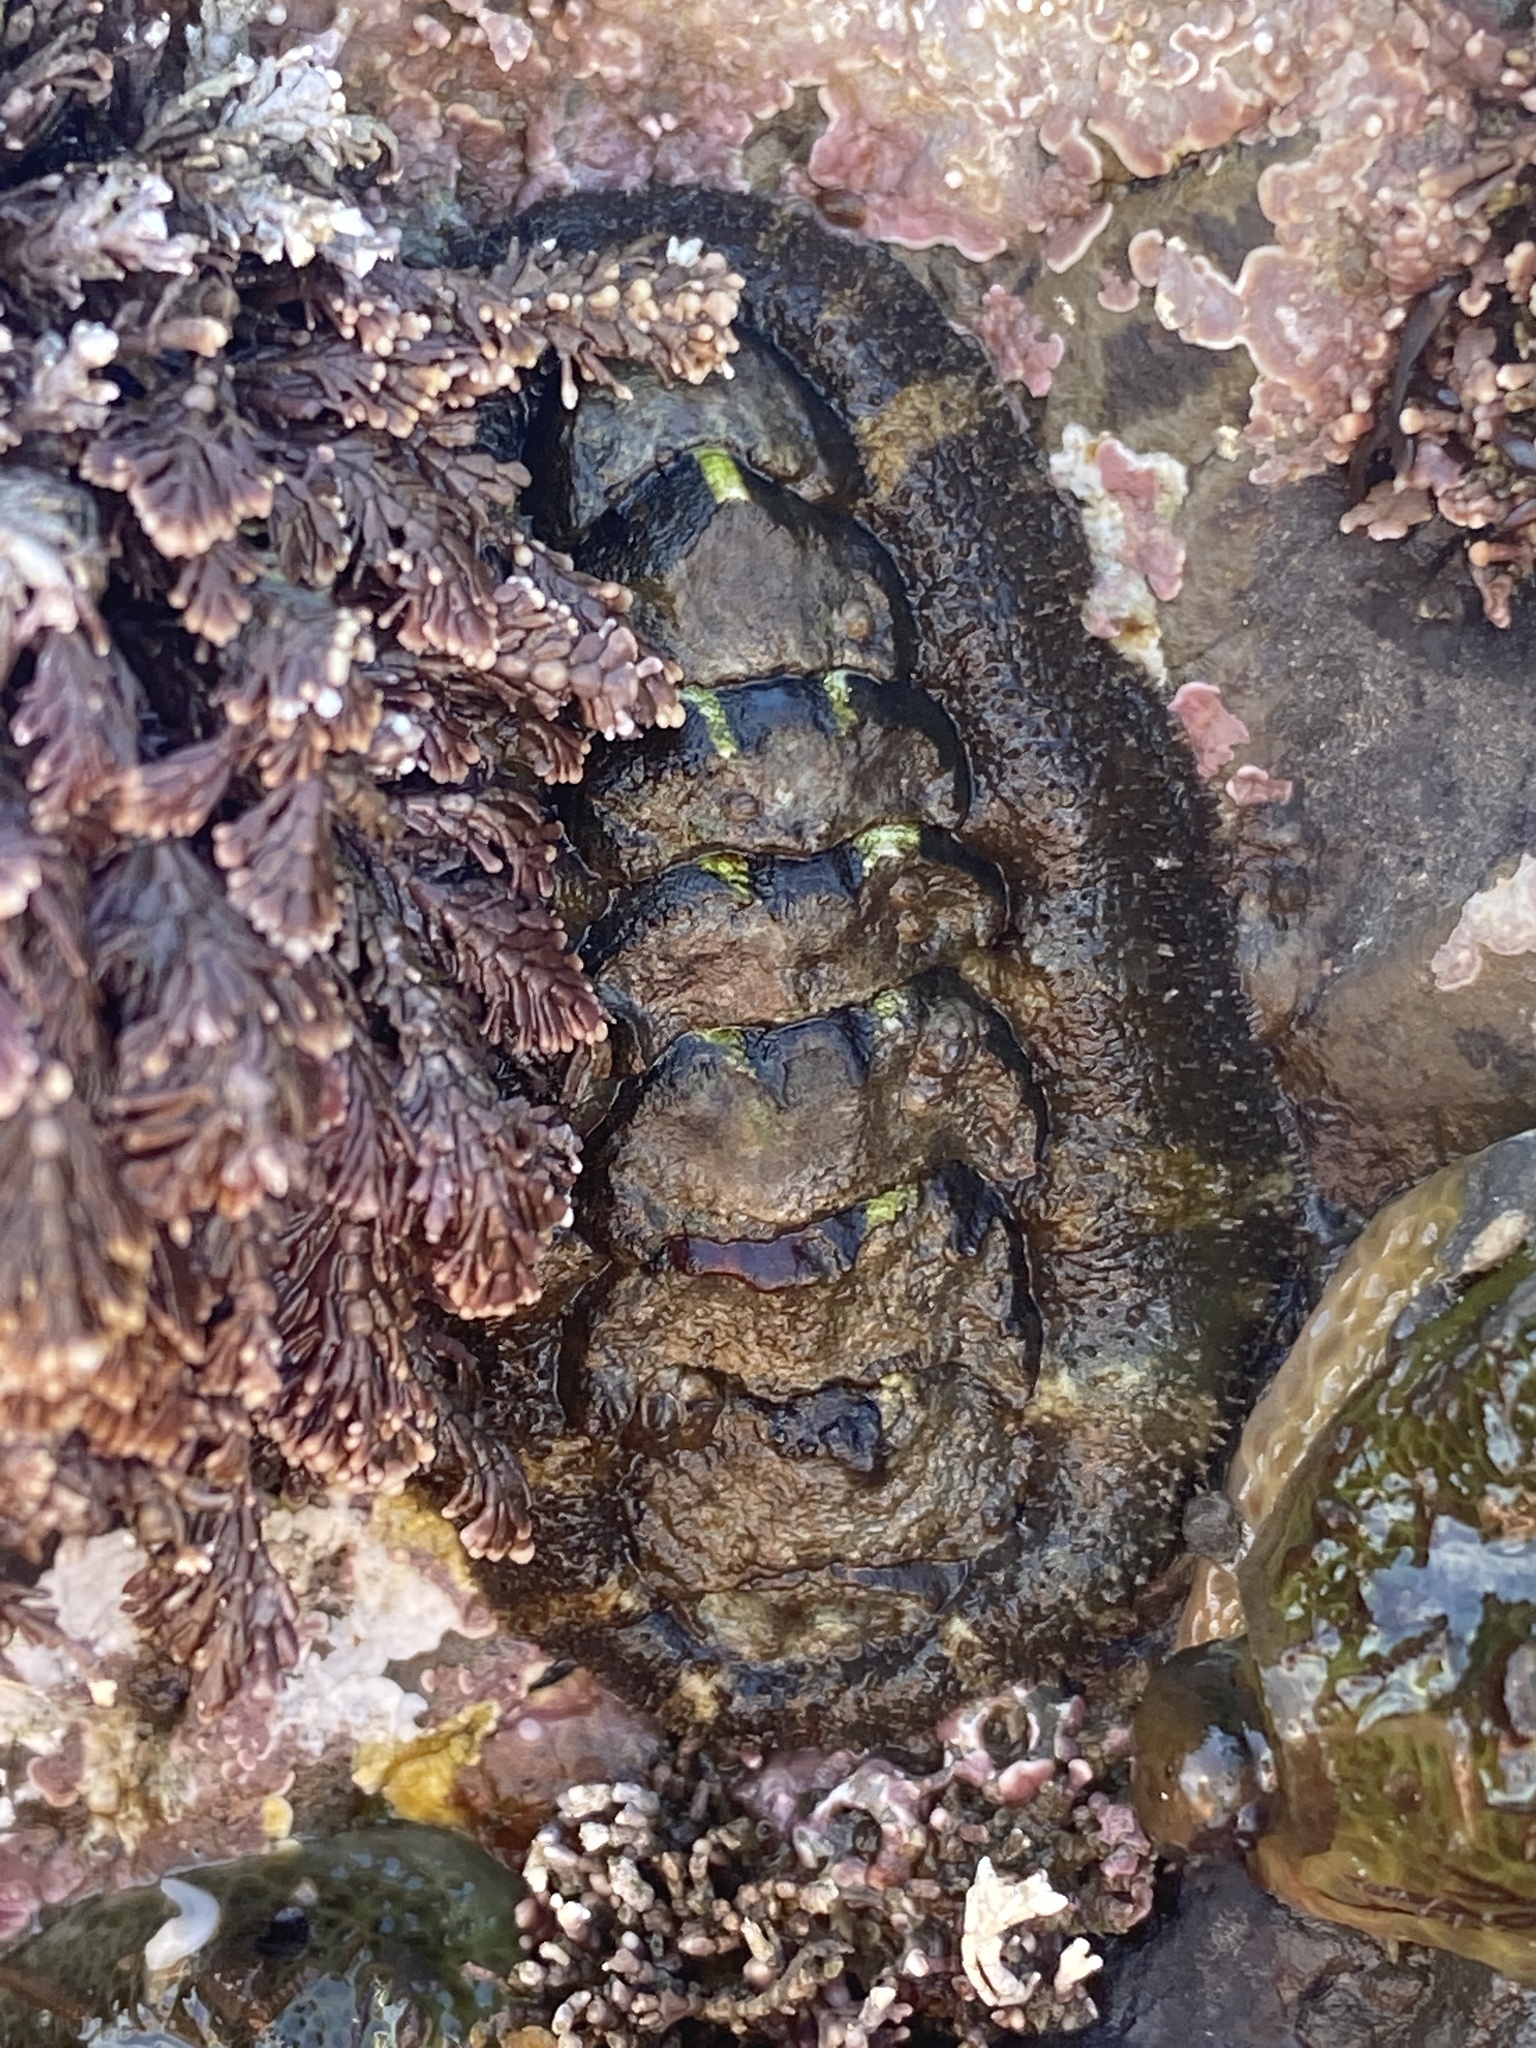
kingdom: Animalia
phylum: Mollusca
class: Polyplacophora
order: Chitonida
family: Tonicellidae
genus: Nuttallina
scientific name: Nuttallina californica
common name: California nuttall chiton
